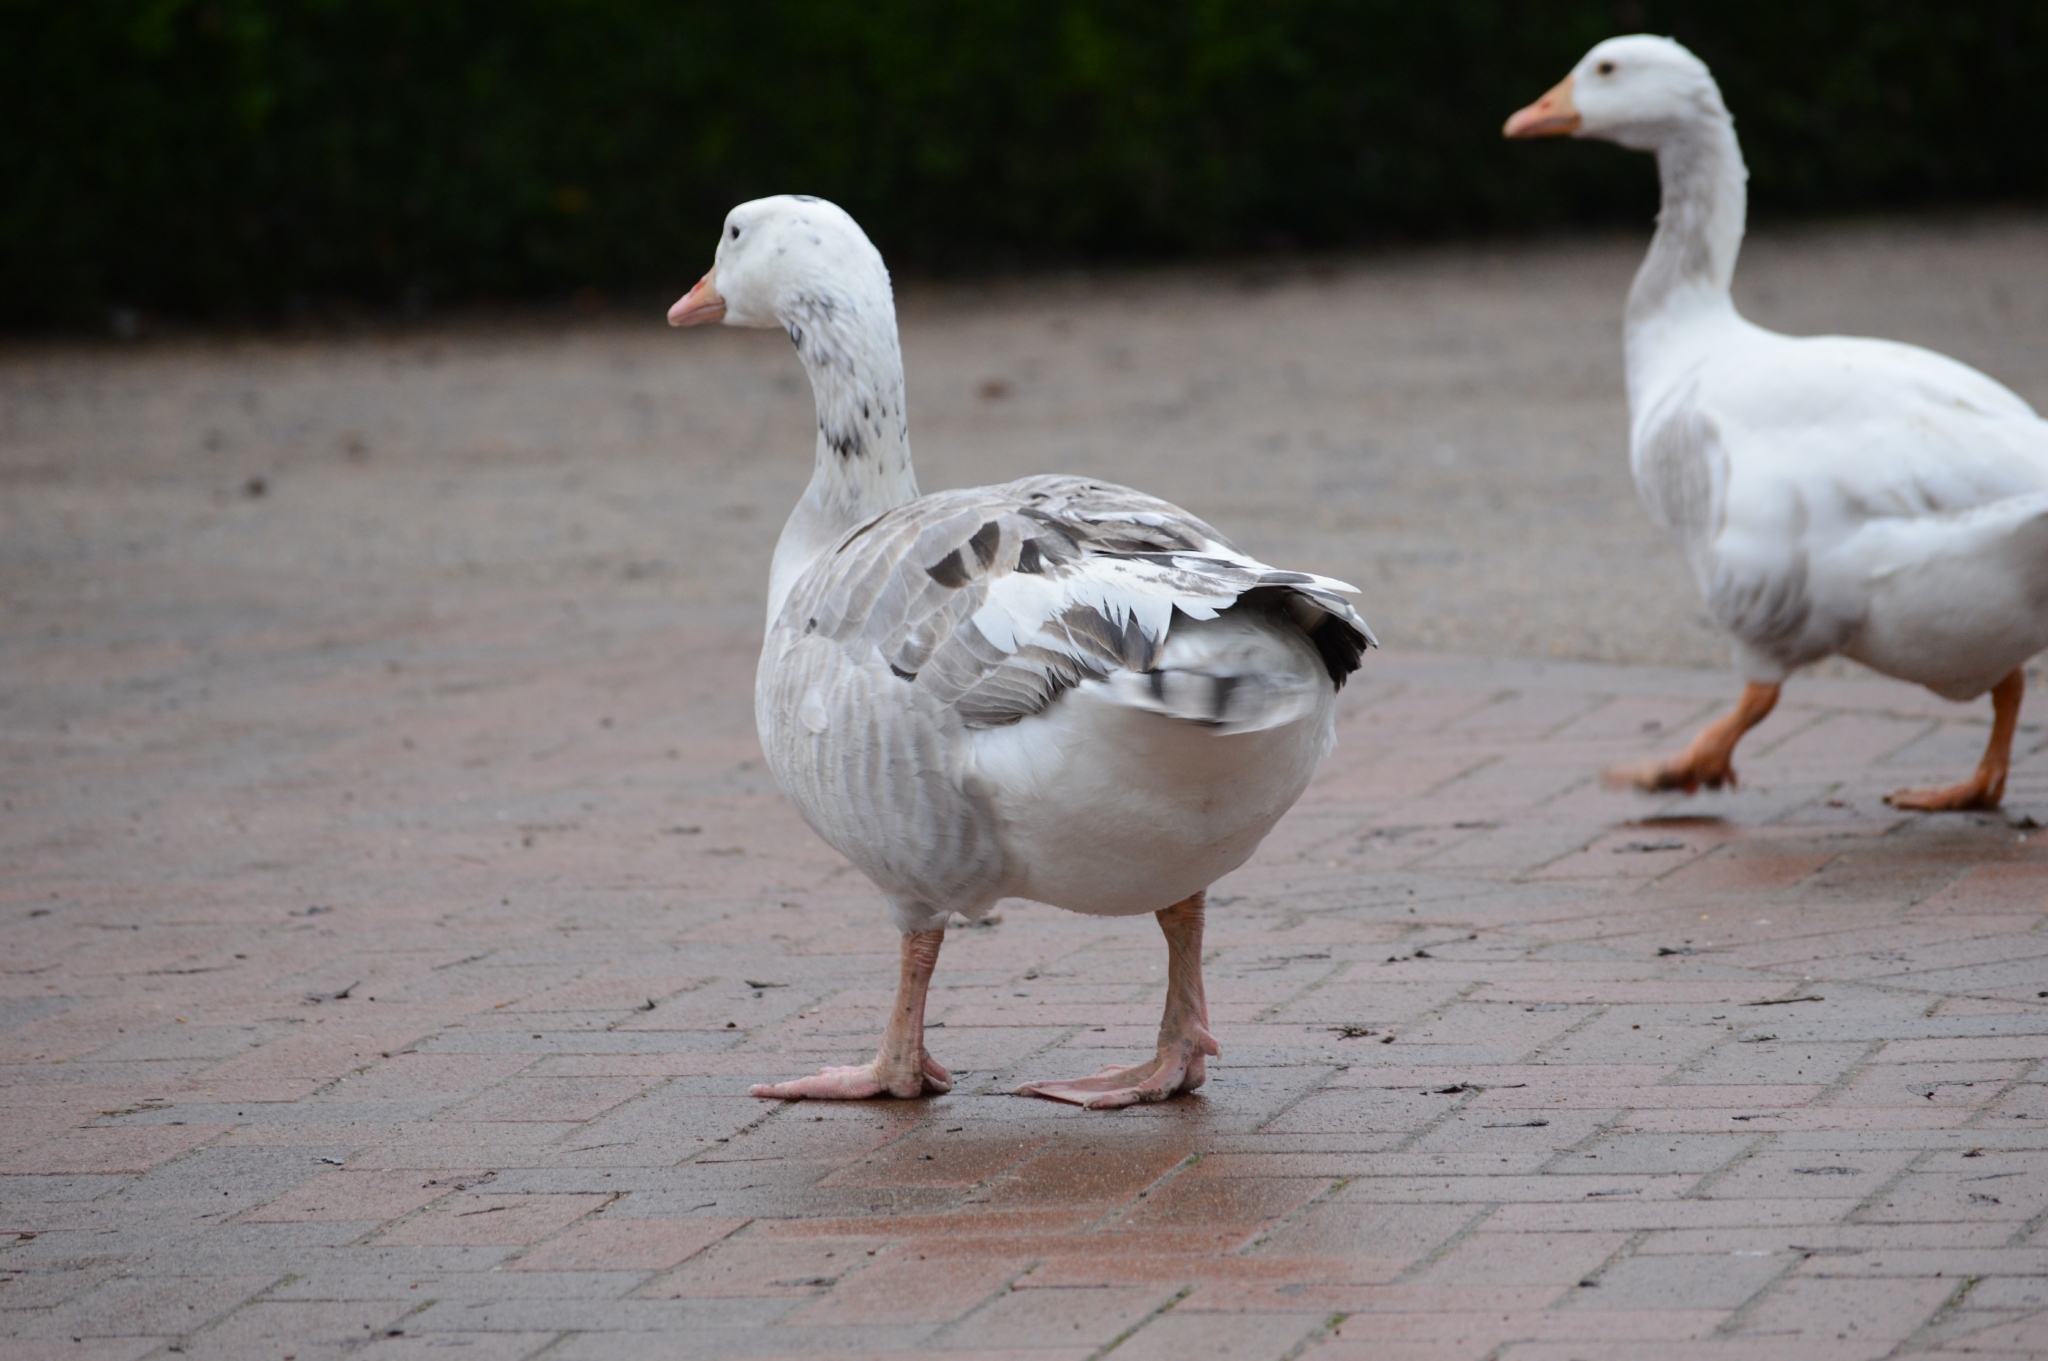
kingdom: Animalia
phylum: Chordata
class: Aves
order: Anseriformes
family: Anatidae
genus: Anser
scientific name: Anser anser
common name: Greylag goose
